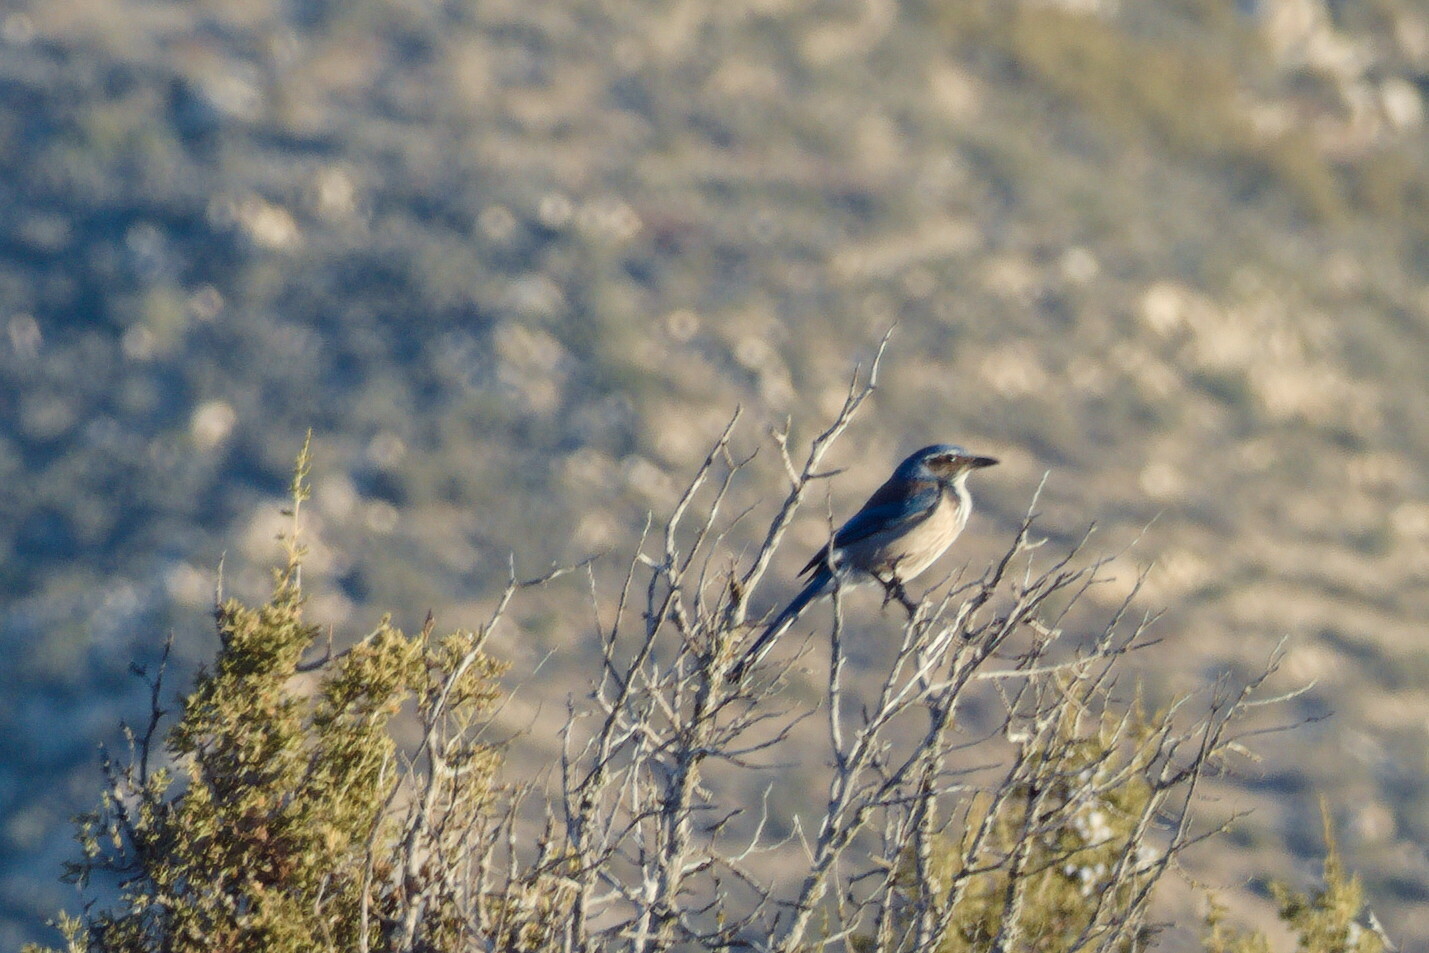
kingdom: Animalia
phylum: Chordata
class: Aves
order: Passeriformes
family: Corvidae
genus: Aphelocoma
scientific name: Aphelocoma californica
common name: California scrub-jay
